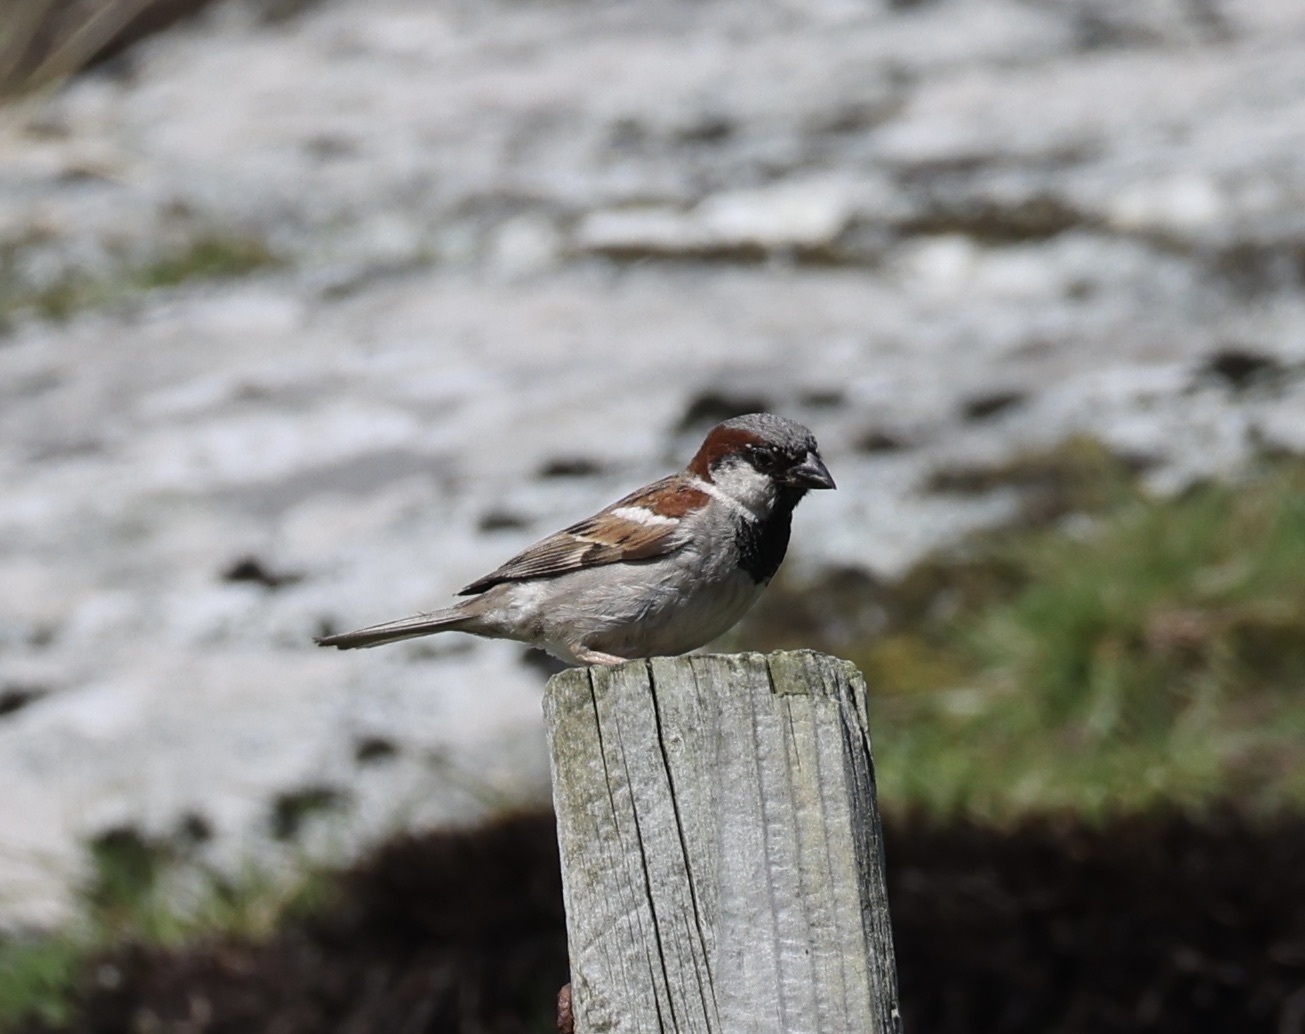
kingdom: Animalia
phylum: Chordata
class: Aves
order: Passeriformes
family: Passeridae
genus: Passer
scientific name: Passer domesticus
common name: House sparrow
